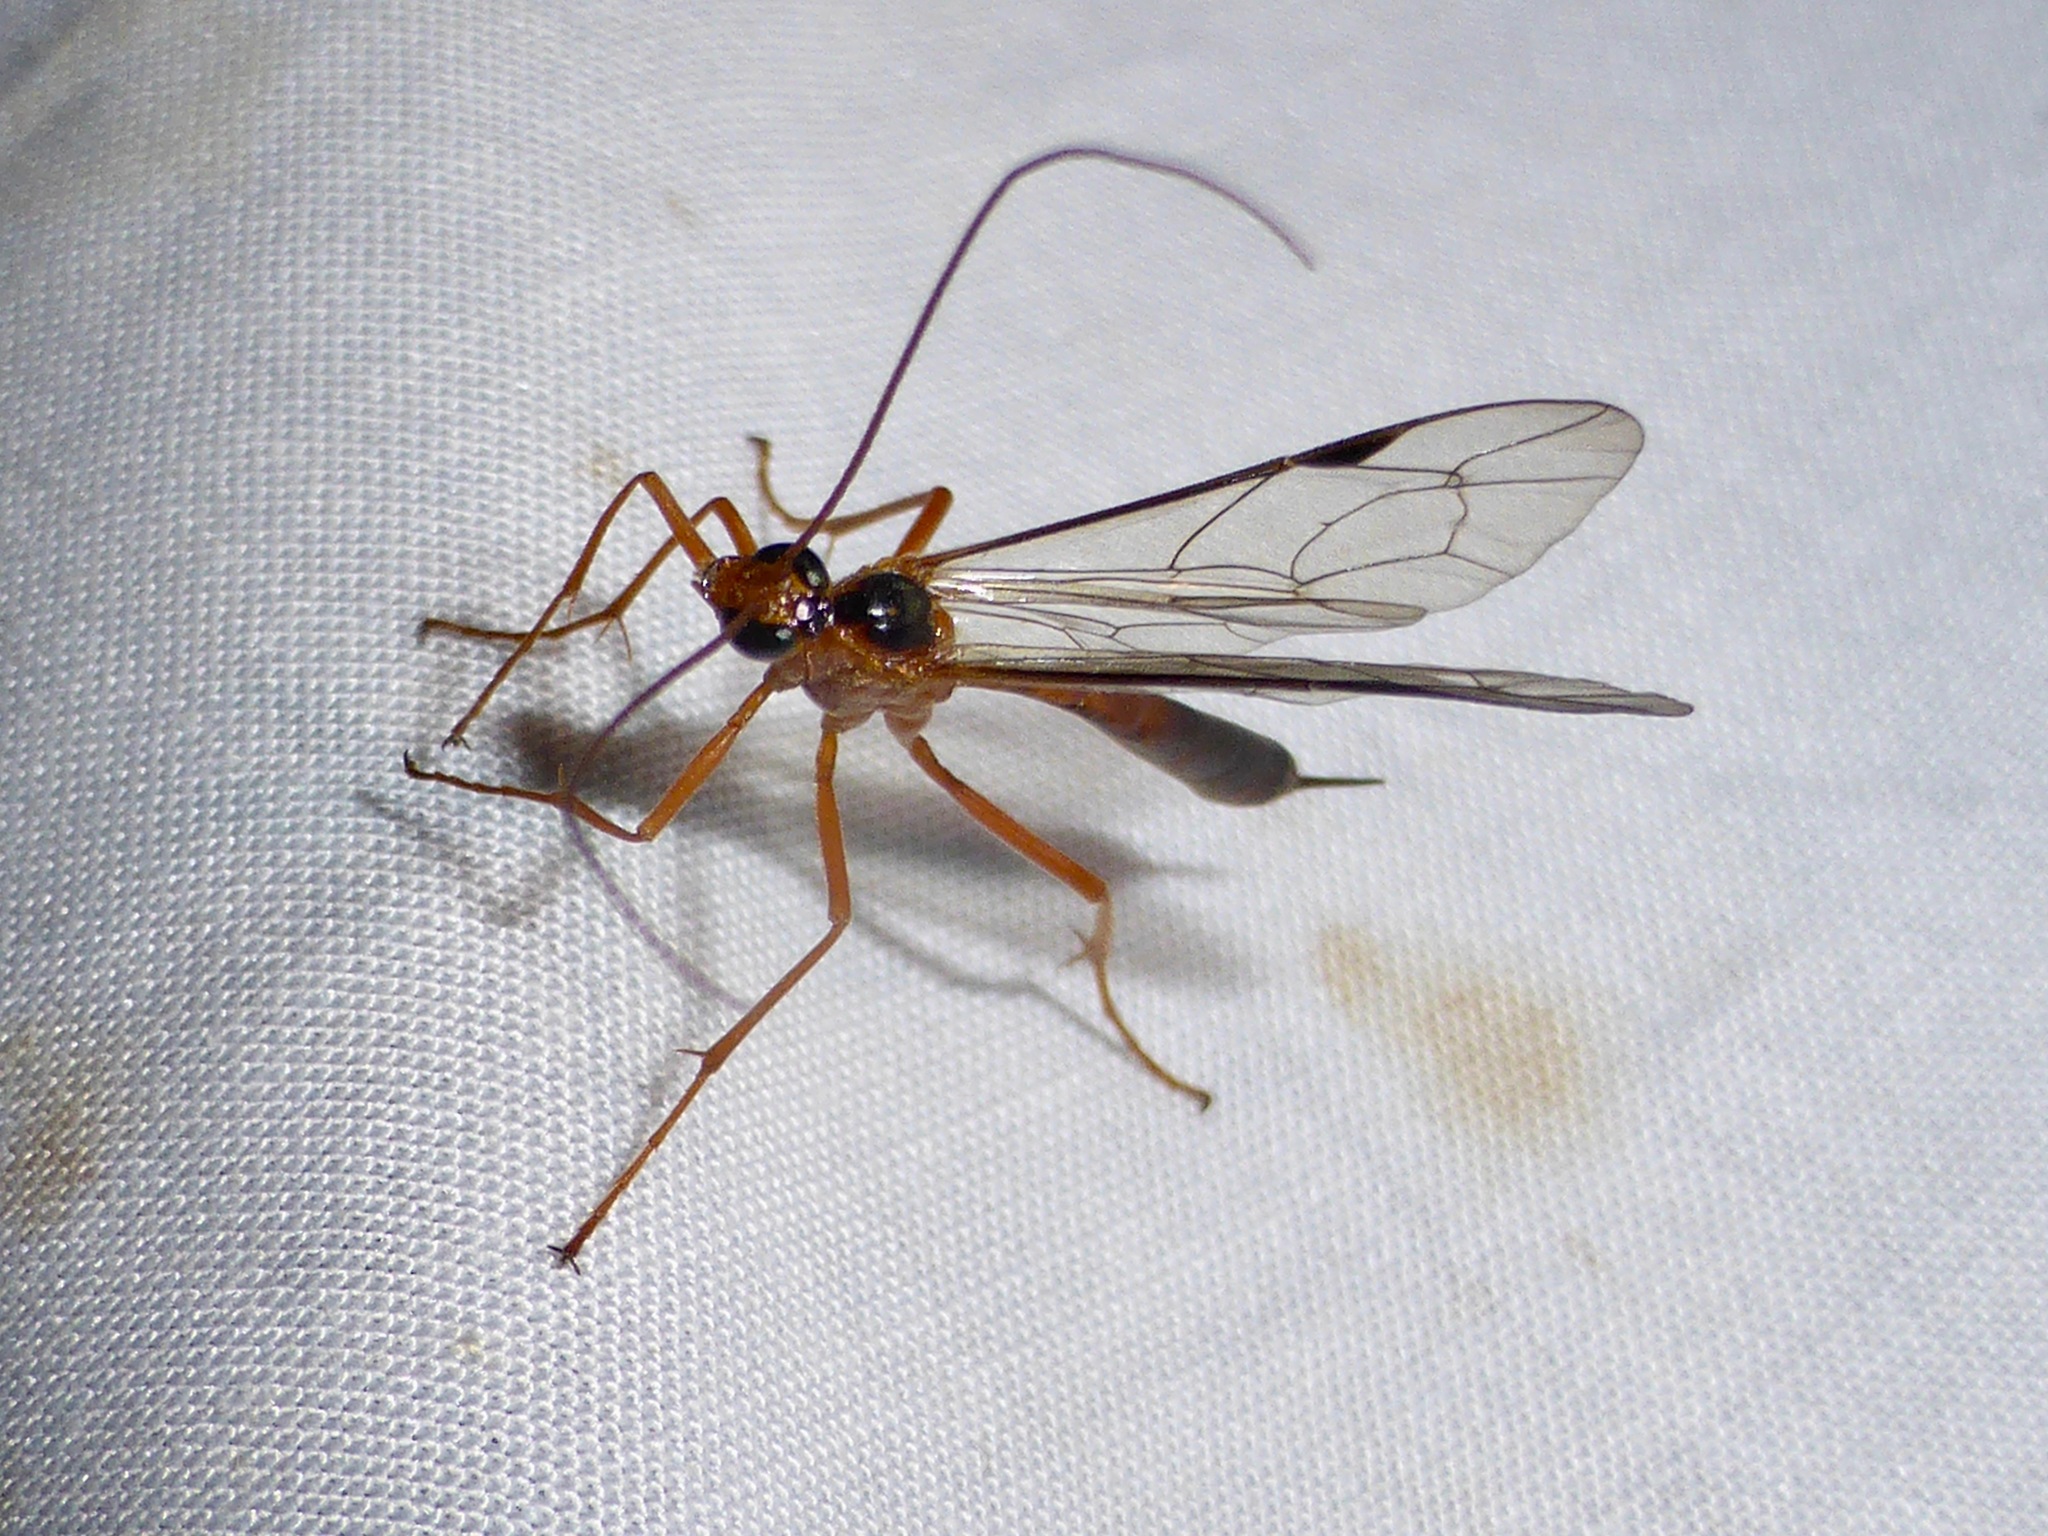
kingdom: Animalia
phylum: Arthropoda
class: Insecta
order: Hymenoptera
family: Ichneumonidae
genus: Netelia
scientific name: Netelia ephippiata
